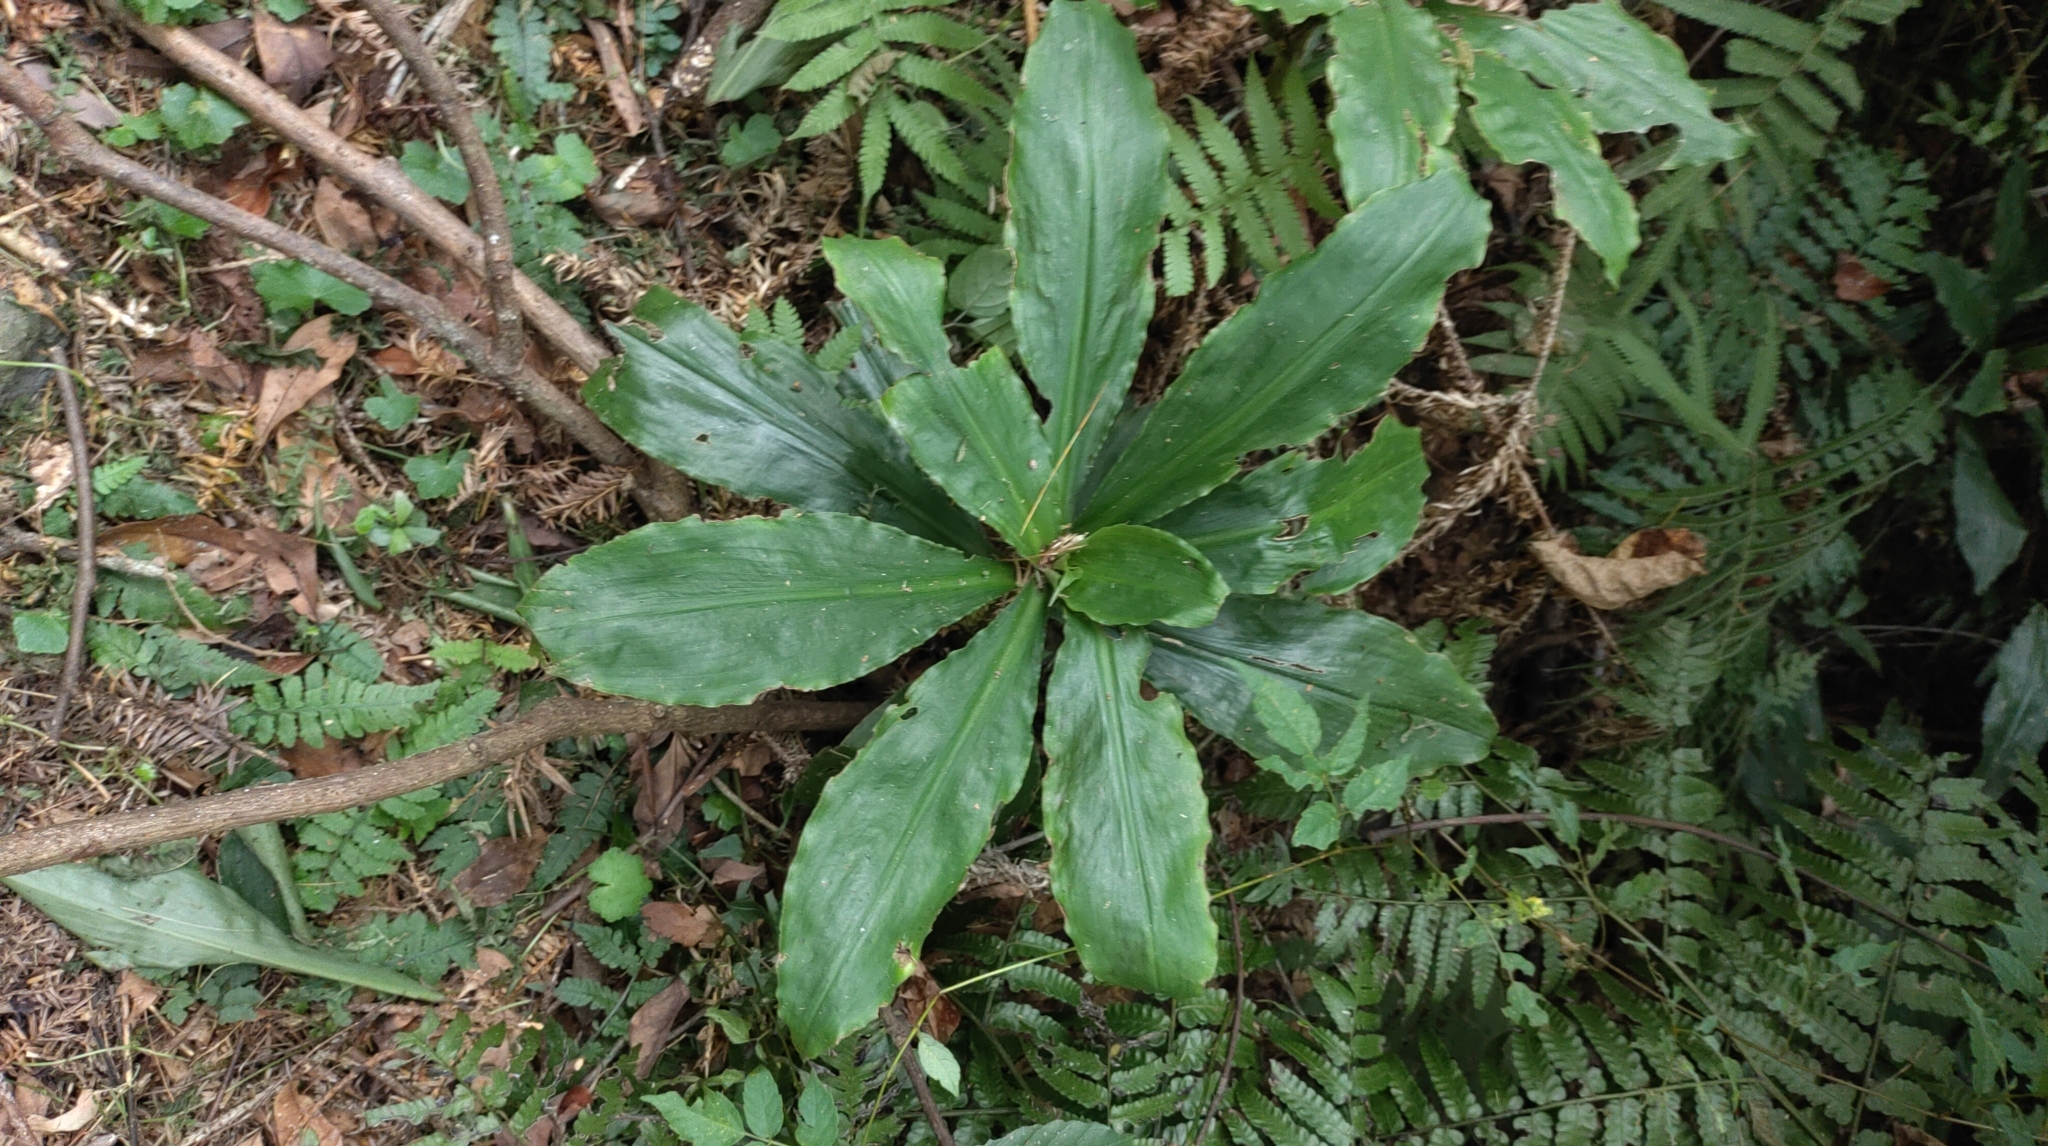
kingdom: Plantae
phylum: Tracheophyta
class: Liliopsida
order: Commelinales
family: Commelinaceae
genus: Amischotolype
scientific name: Amischotolype glabrata
